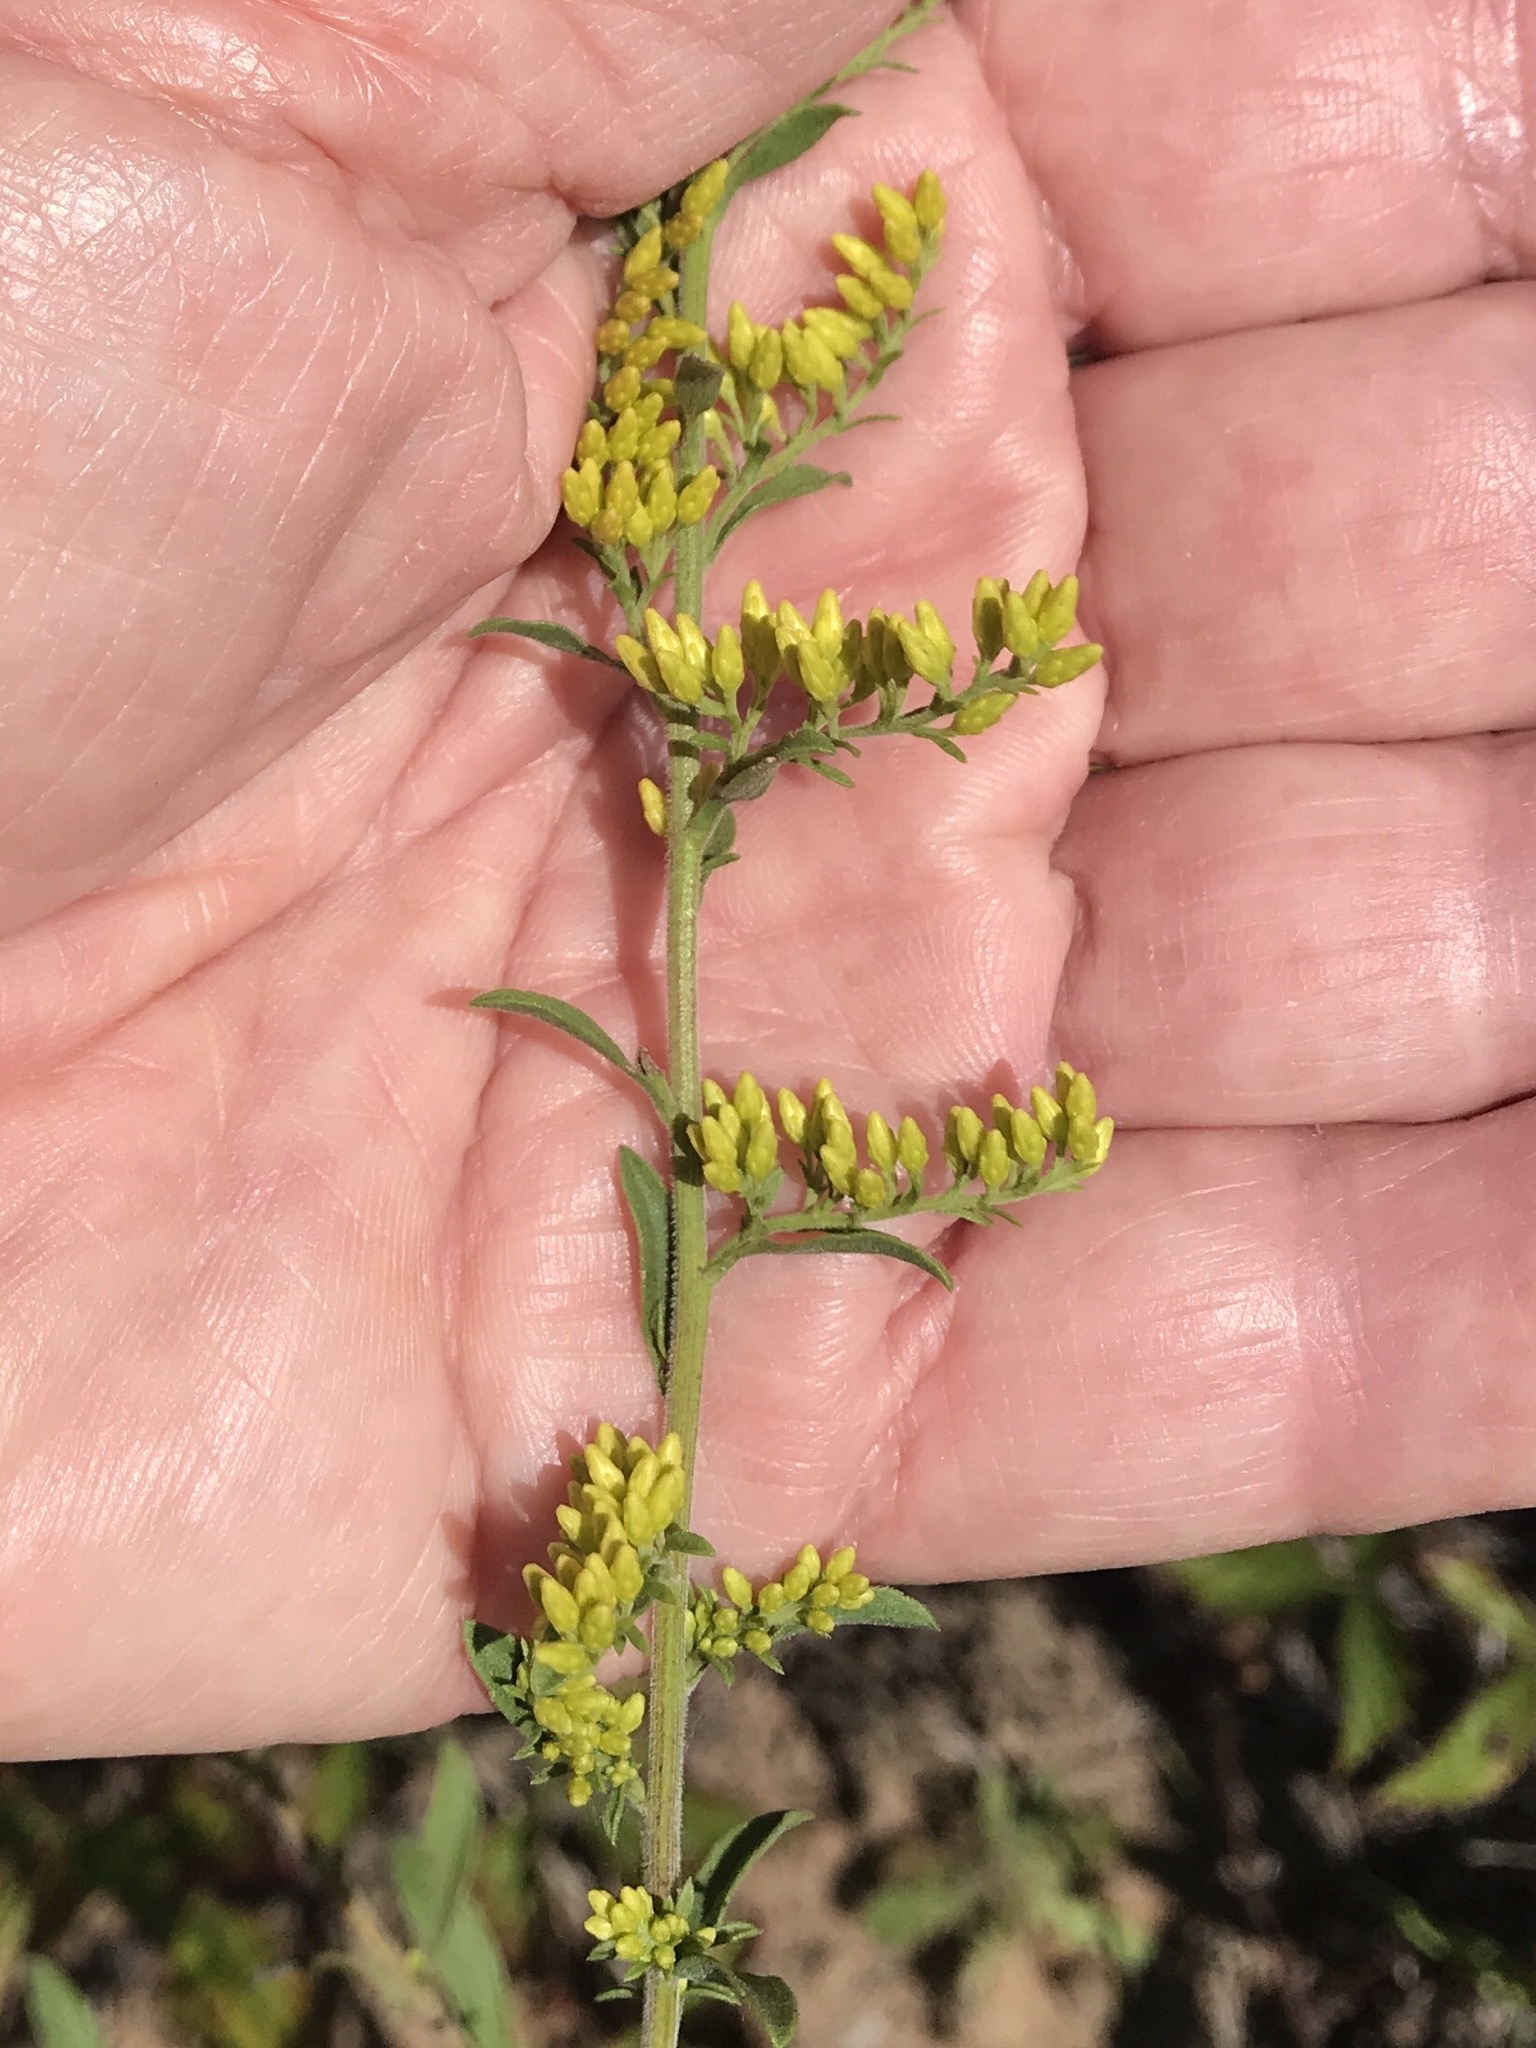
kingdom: Plantae
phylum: Tracheophyta
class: Magnoliopsida
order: Asterales
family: Asteraceae
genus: Solidago
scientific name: Solidago nemoralis
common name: Grey goldenrod
